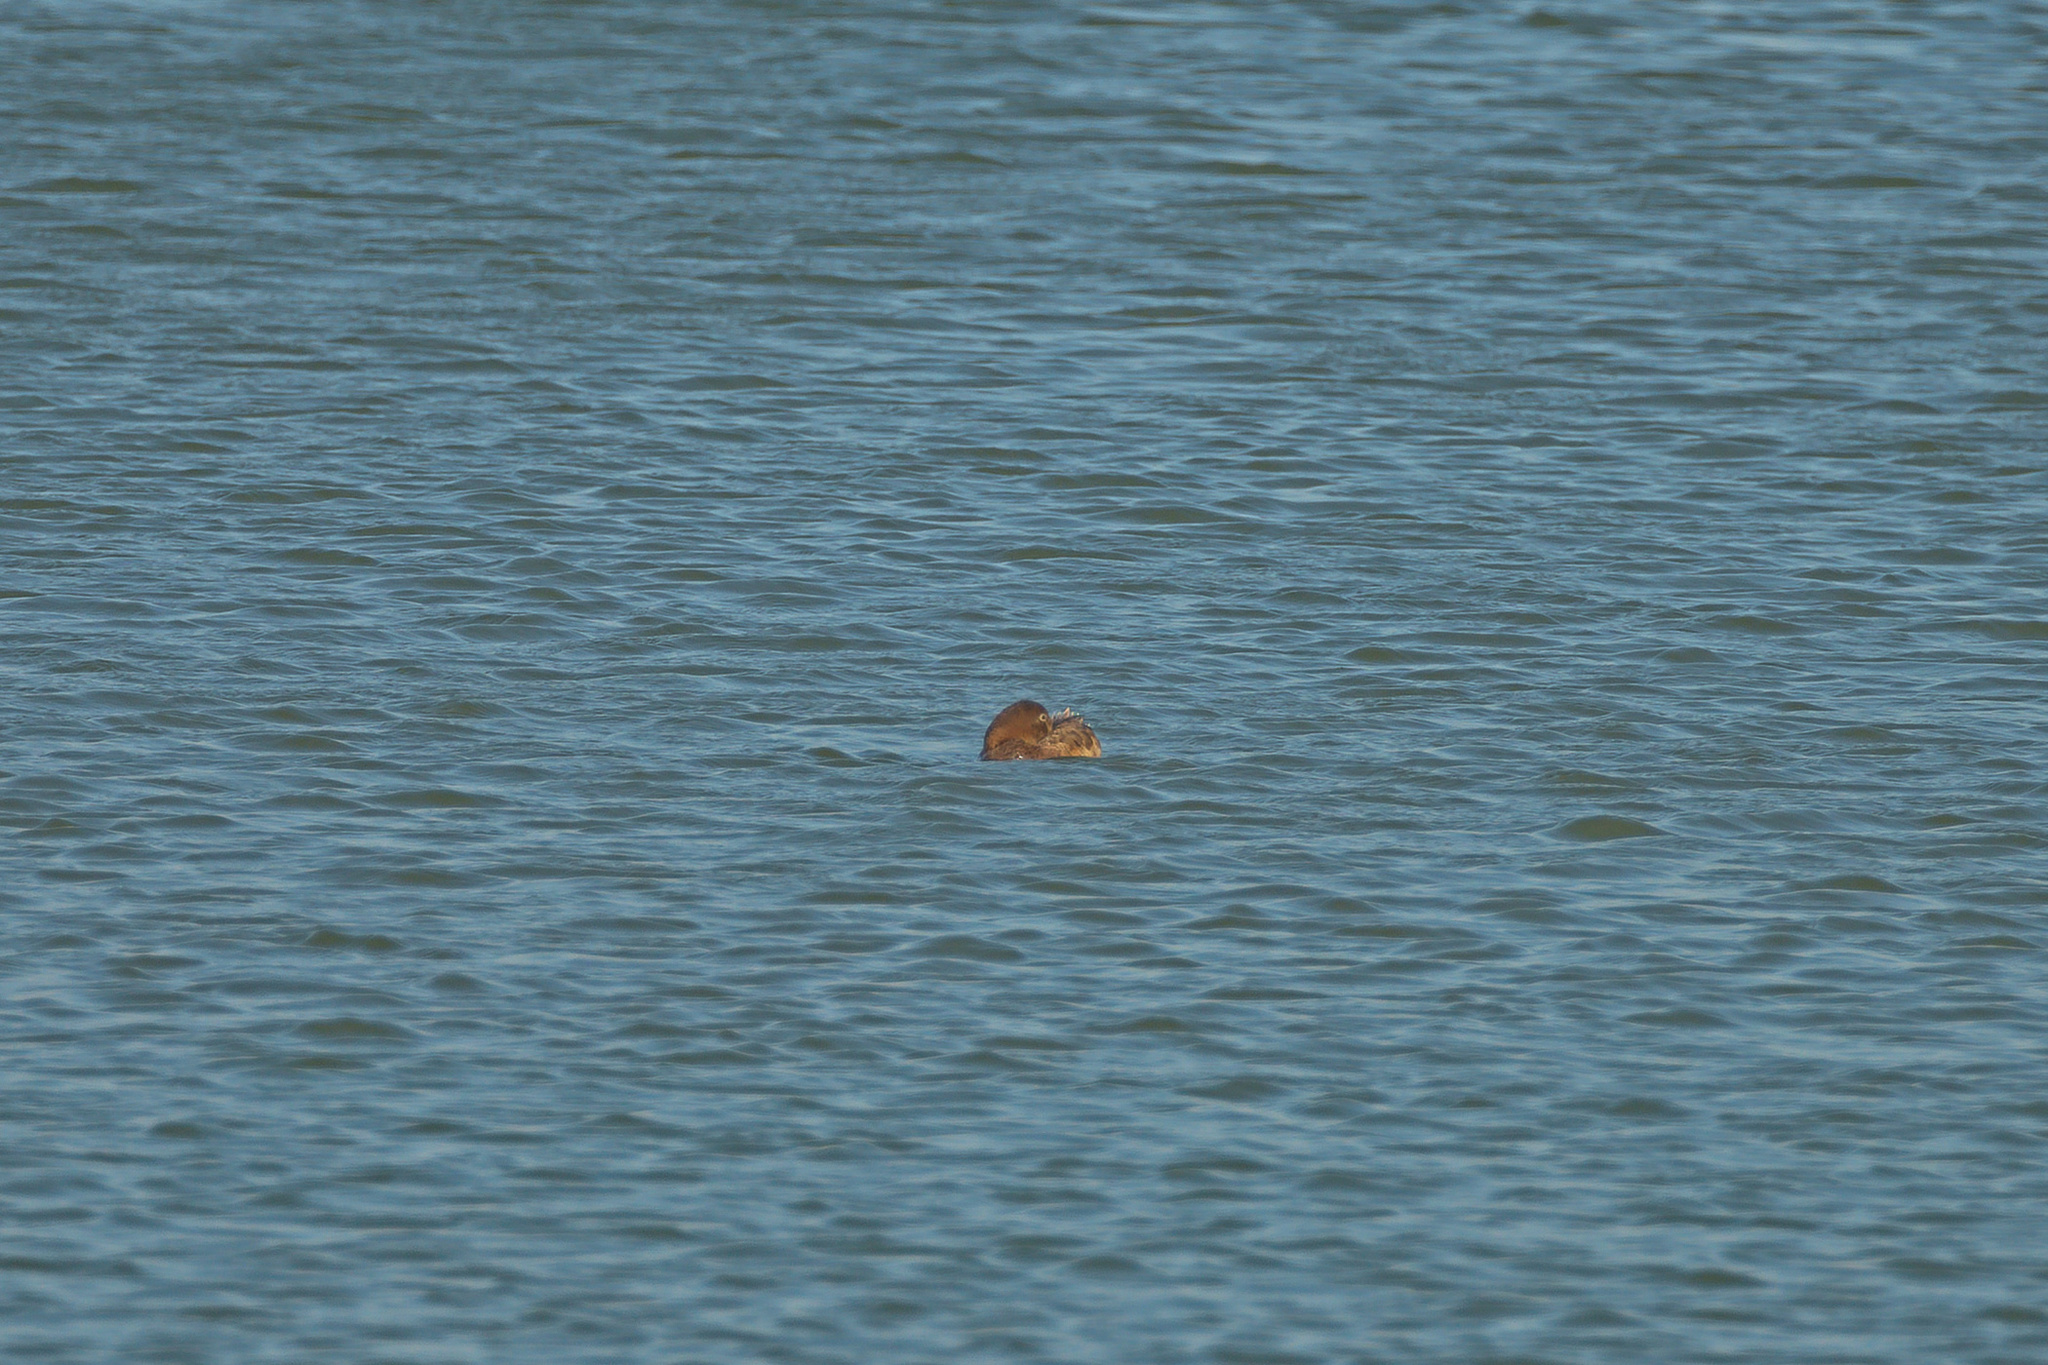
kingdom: Animalia
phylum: Chordata
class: Aves
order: Anseriformes
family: Anatidae
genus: Aythya
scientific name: Aythya ferina
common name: Common pochard
